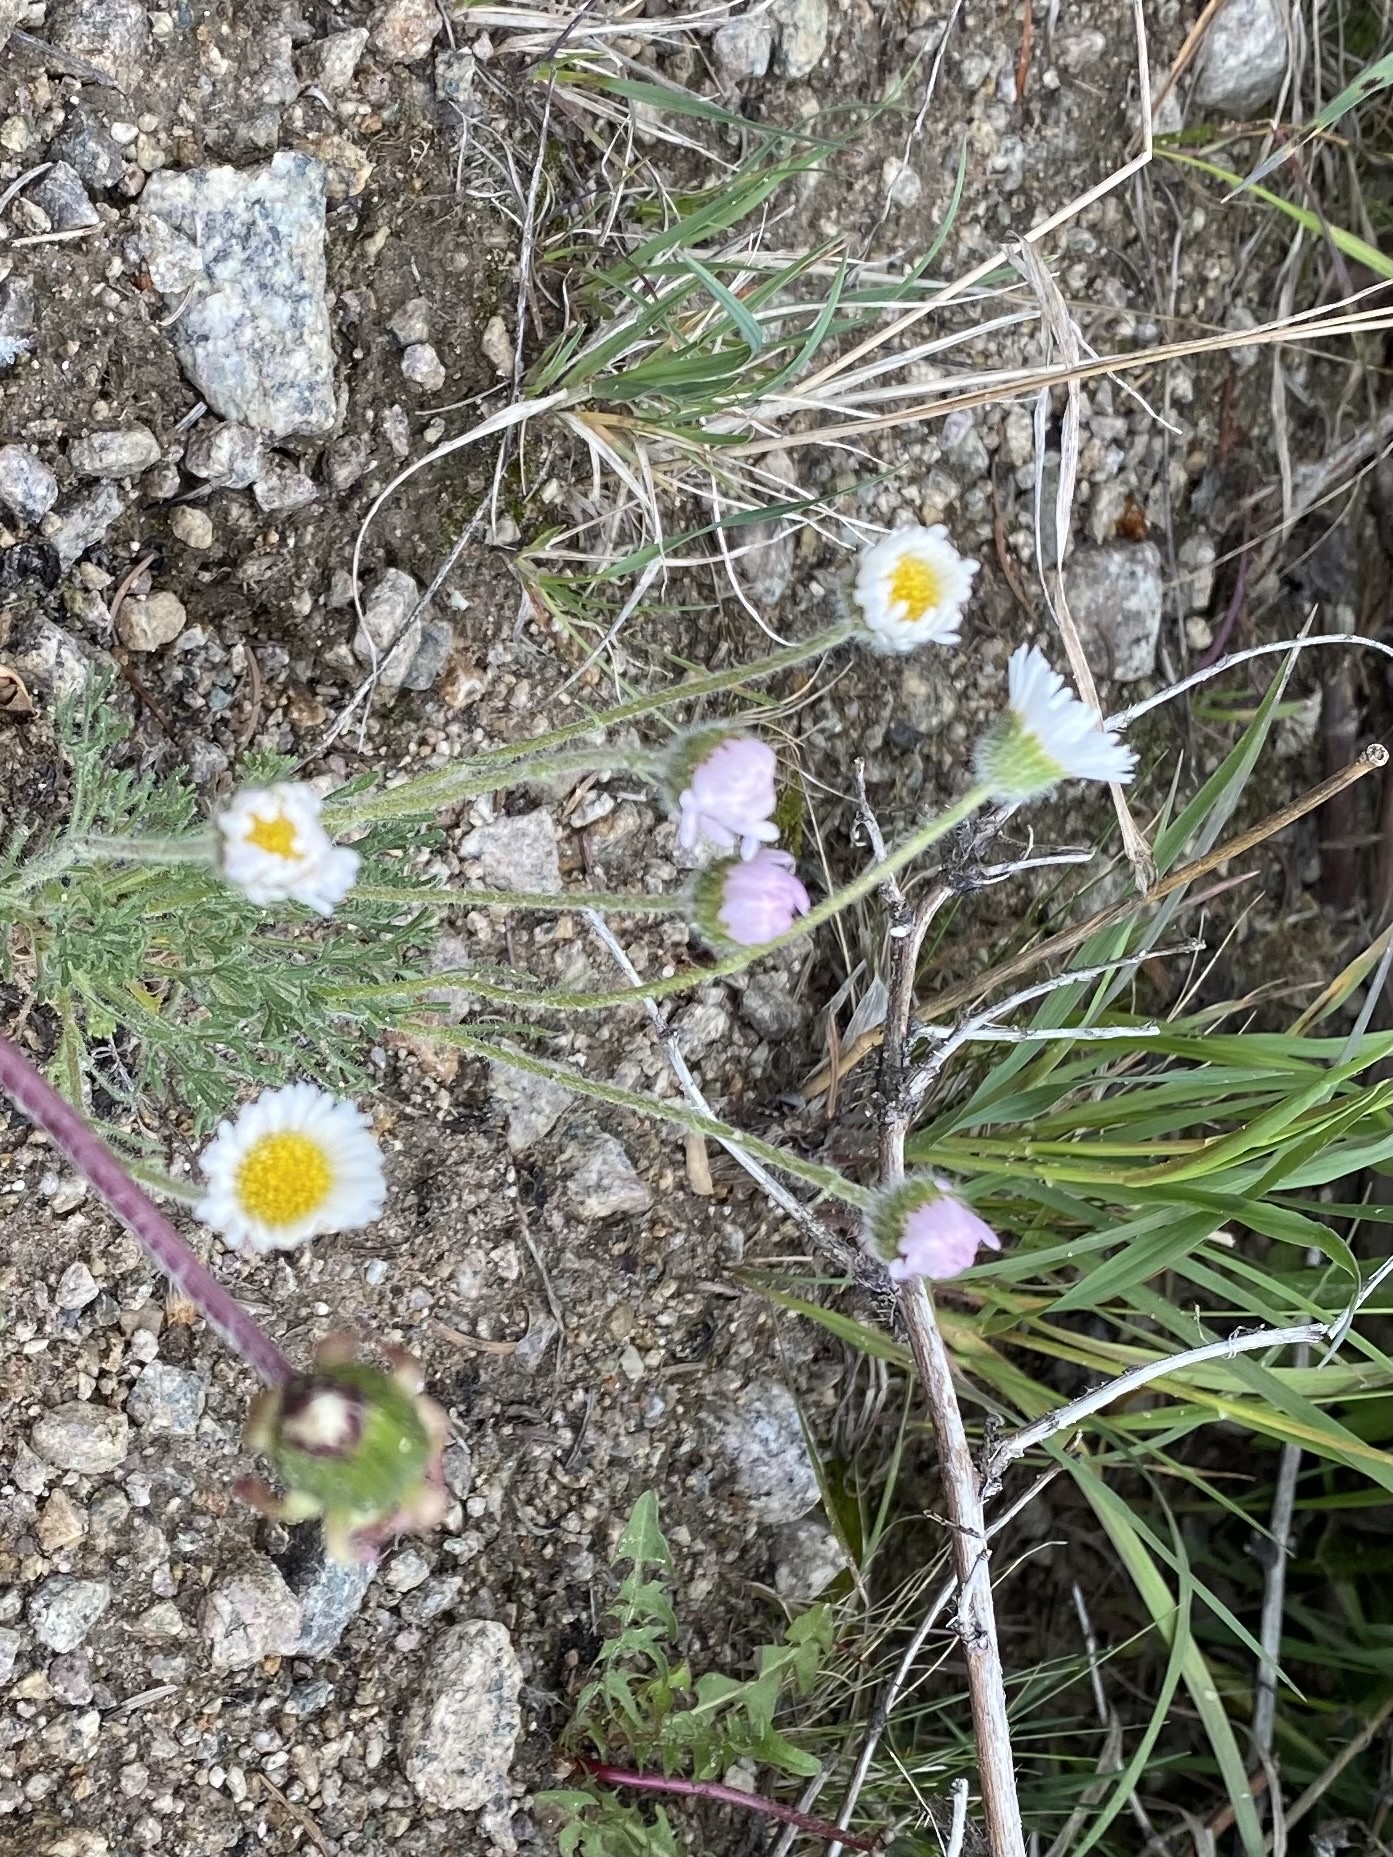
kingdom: Plantae
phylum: Tracheophyta
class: Magnoliopsida
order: Asterales
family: Asteraceae
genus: Erigeron
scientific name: Erigeron compositus
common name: Dwarf mountain fleabane
